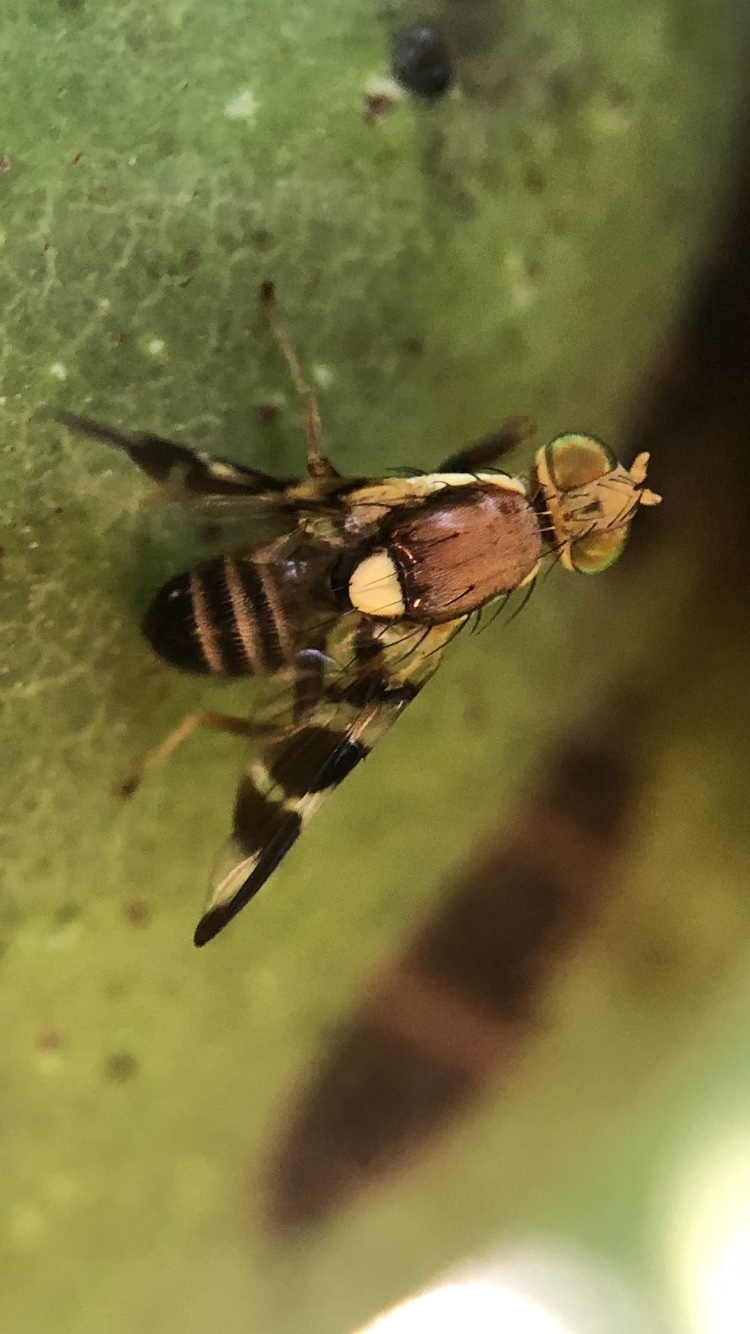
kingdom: Animalia
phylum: Arthropoda
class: Insecta
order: Diptera
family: Tephritidae
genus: Rhagoletis
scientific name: Rhagoletis completa
